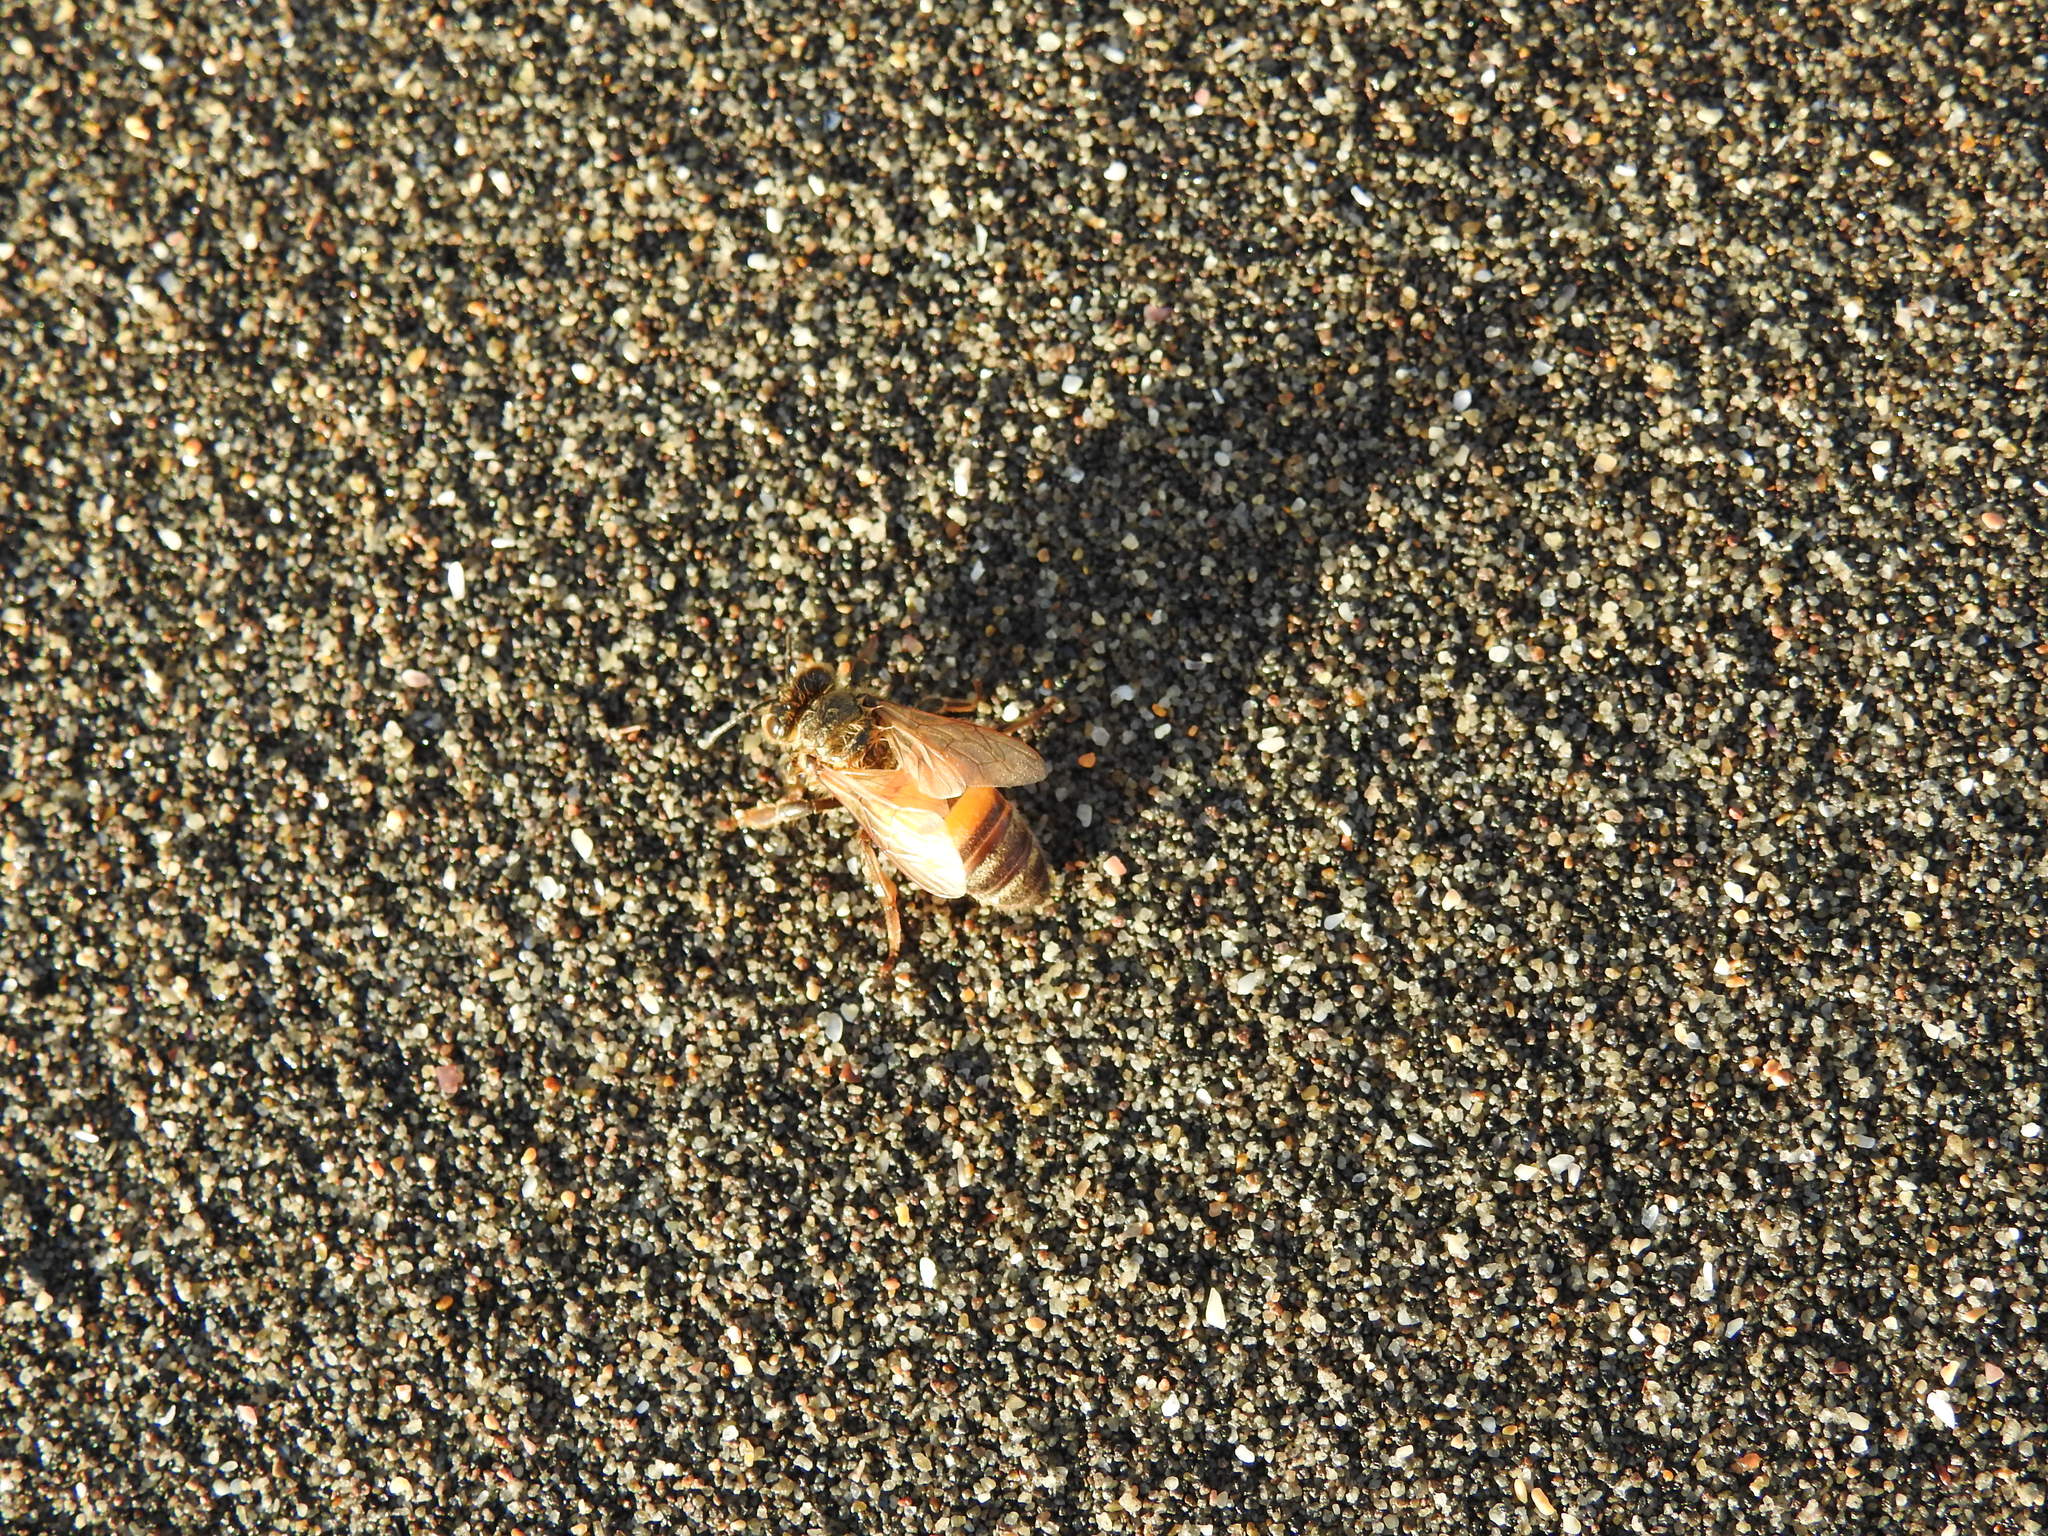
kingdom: Animalia
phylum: Arthropoda
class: Insecta
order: Hymenoptera
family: Apidae
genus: Apis
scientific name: Apis mellifera
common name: Honey bee
